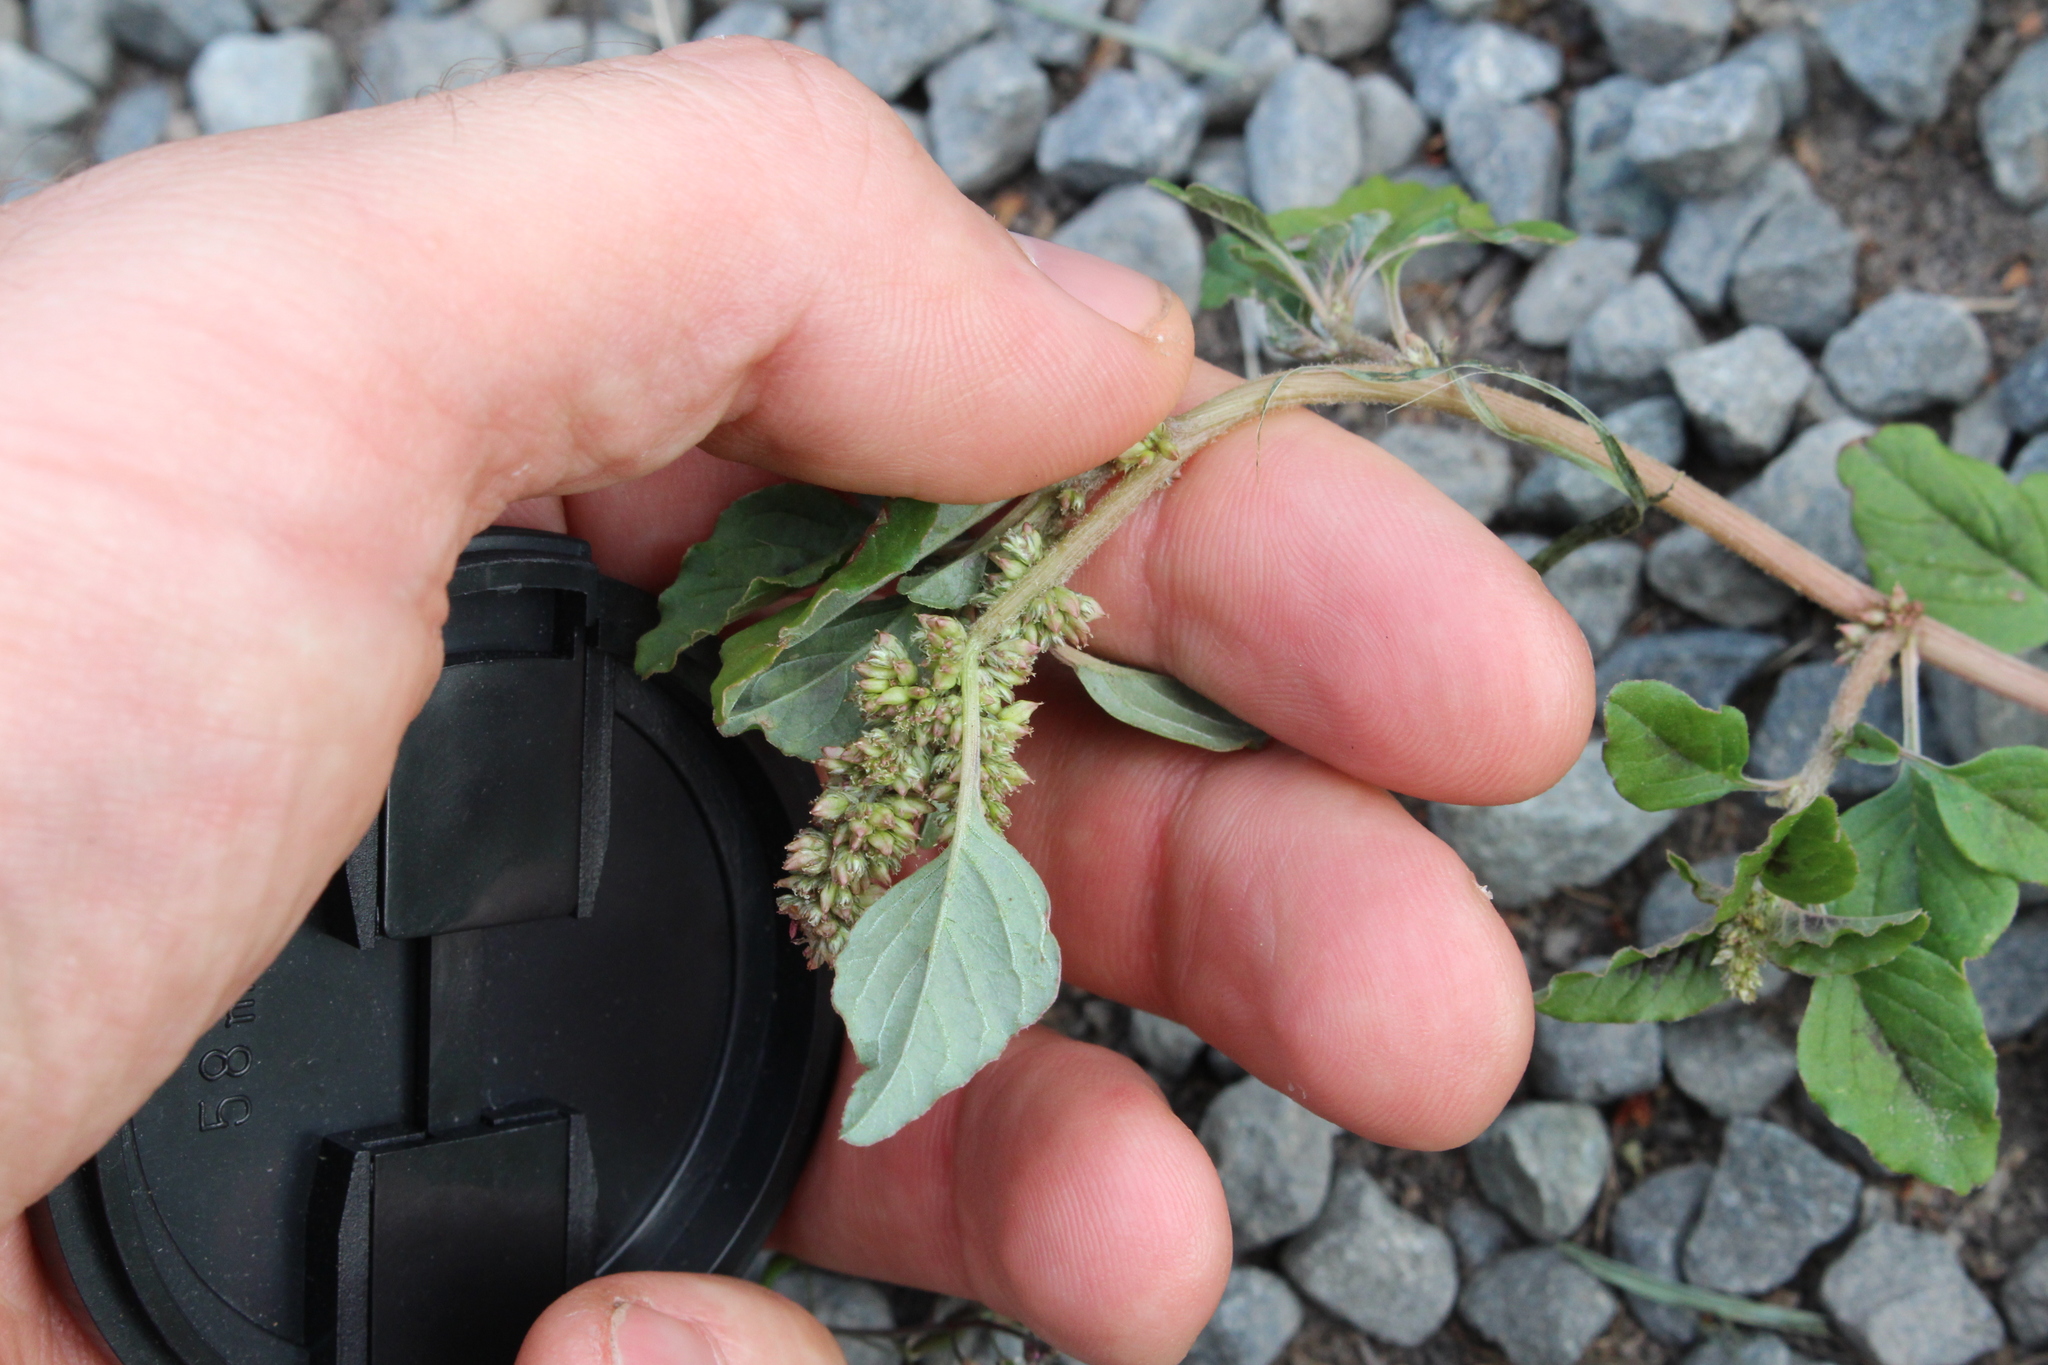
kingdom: Plantae
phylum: Tracheophyta
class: Magnoliopsida
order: Caryophyllales
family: Amaranthaceae
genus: Amaranthus
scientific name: Amaranthus deflexus
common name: Perennial pigweed
